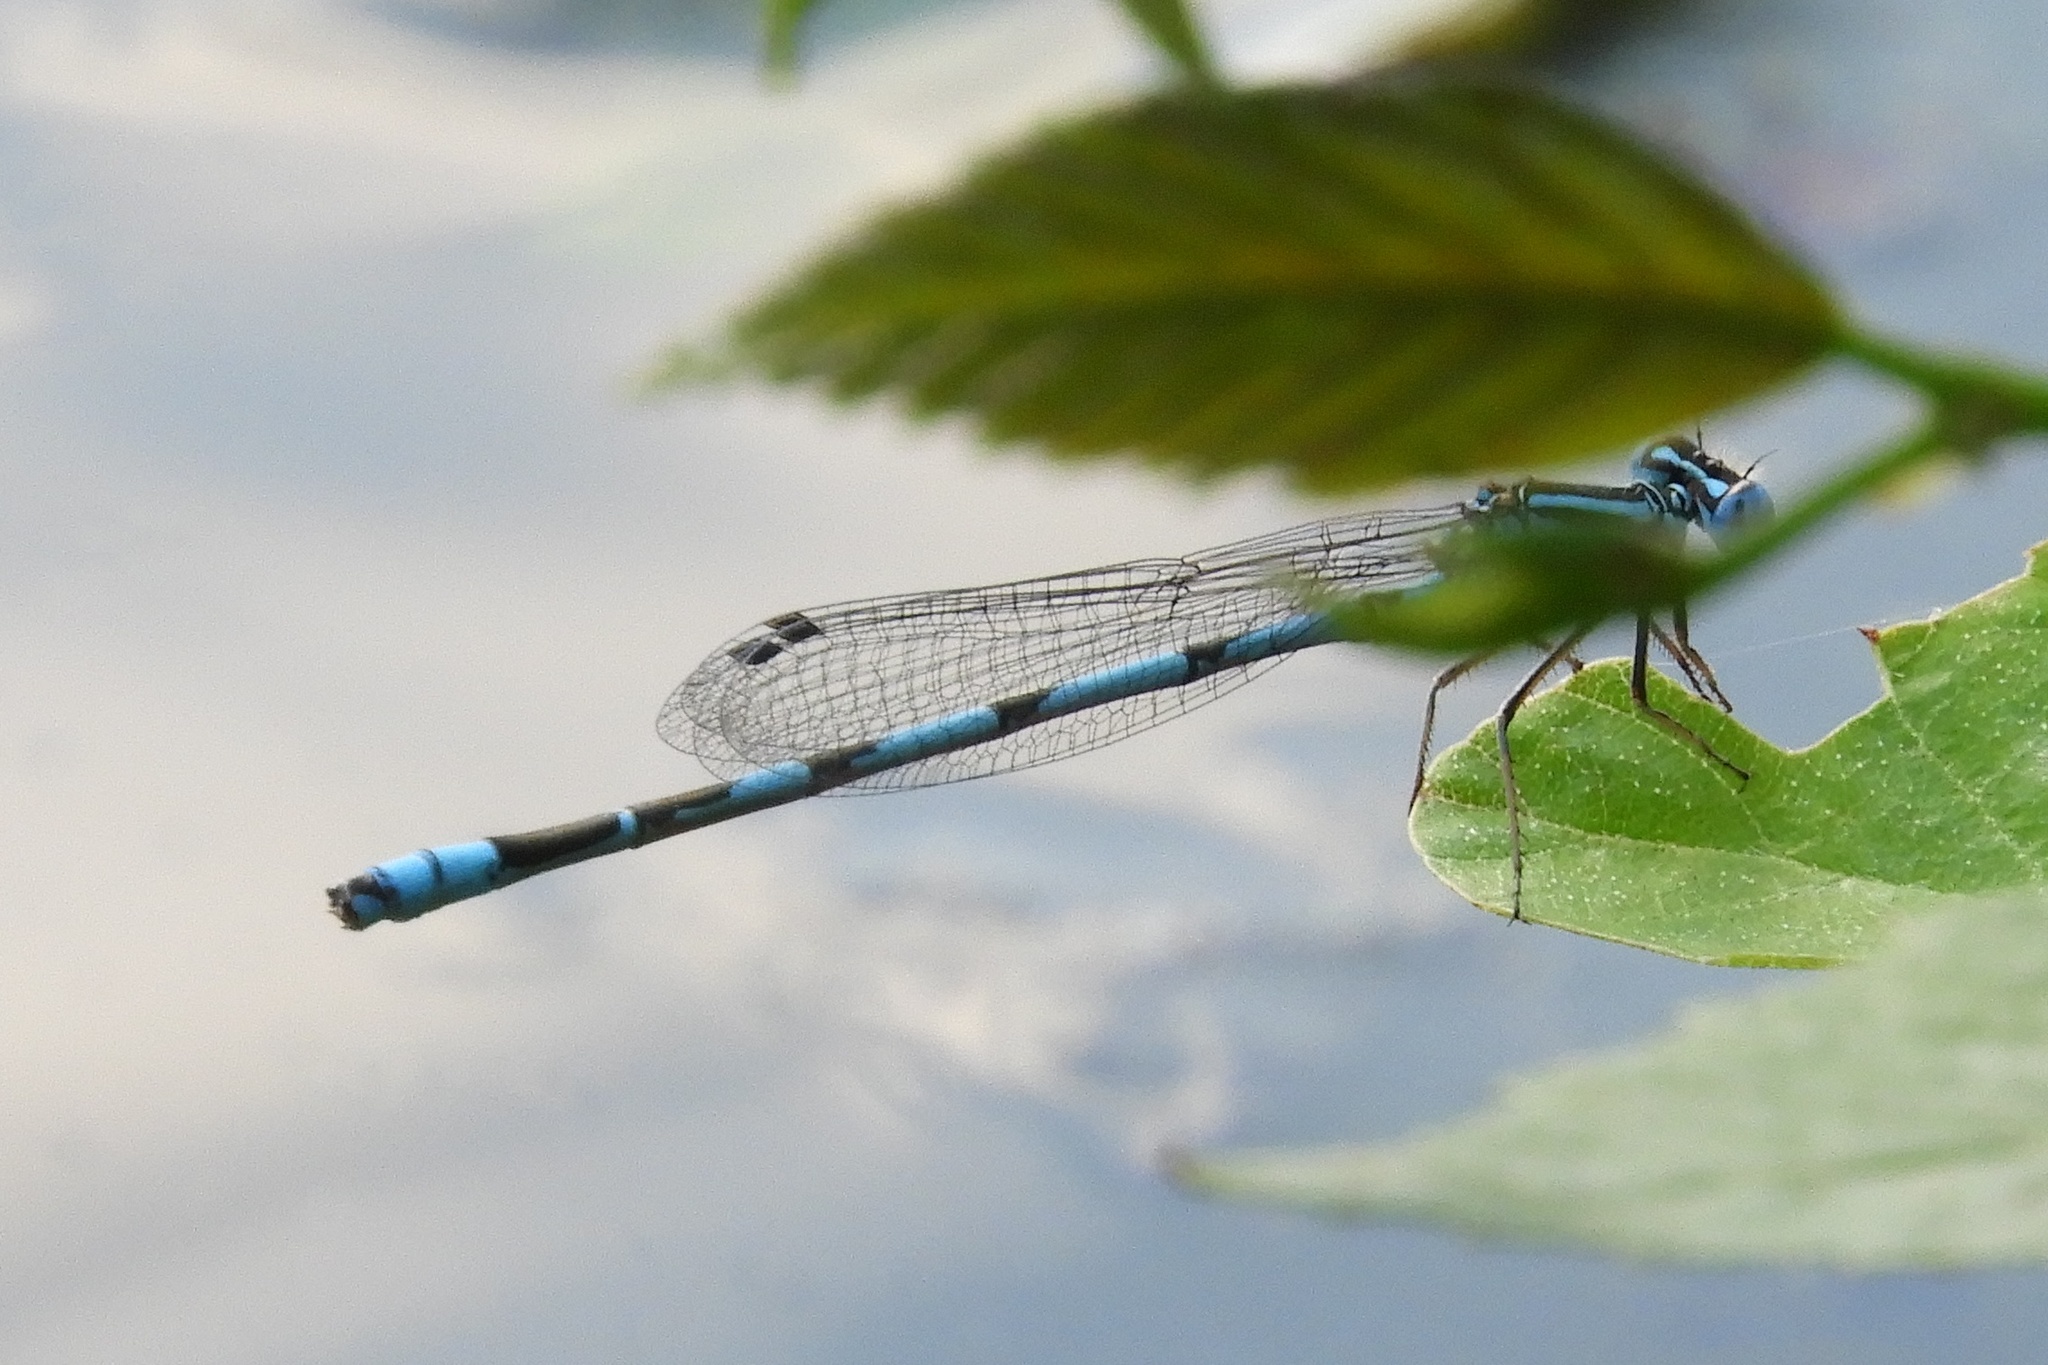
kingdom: Animalia
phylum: Arthropoda
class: Insecta
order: Odonata
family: Coenagrionidae
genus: Enallagma
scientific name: Enallagma durum
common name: Big bluet
